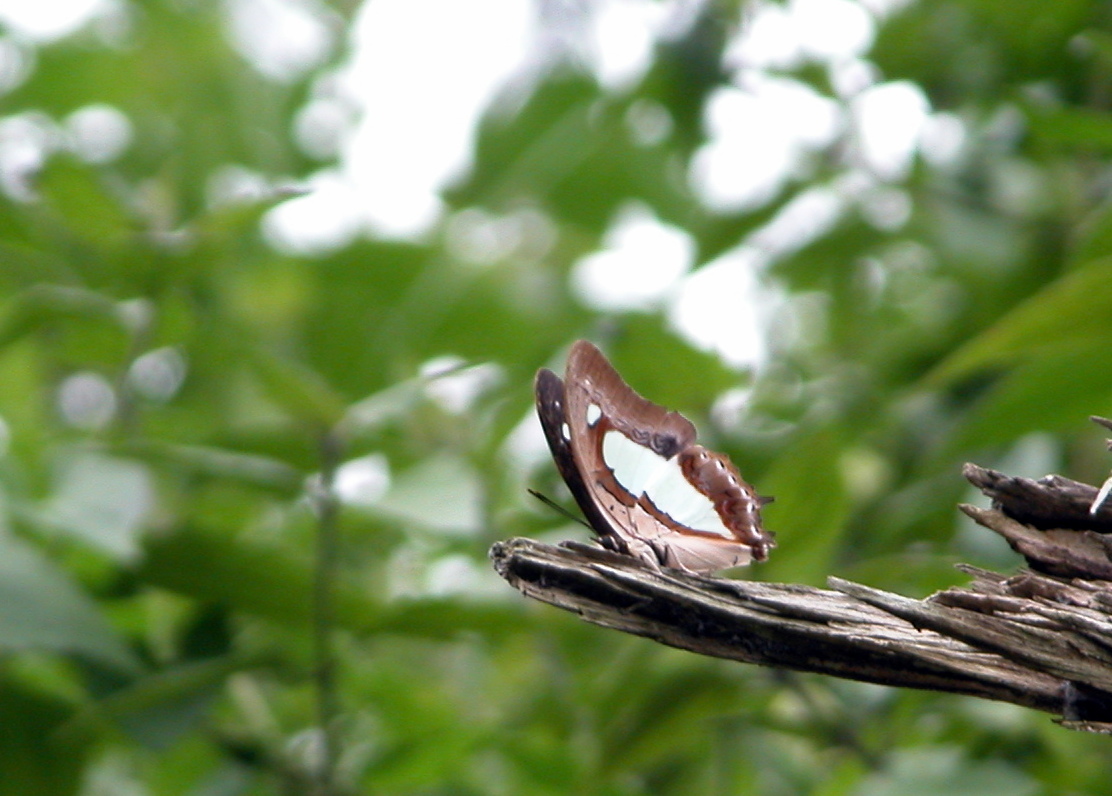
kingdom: Animalia
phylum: Arthropoda
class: Insecta
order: Lepidoptera
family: Nymphalidae
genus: Polyura
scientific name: Polyura
